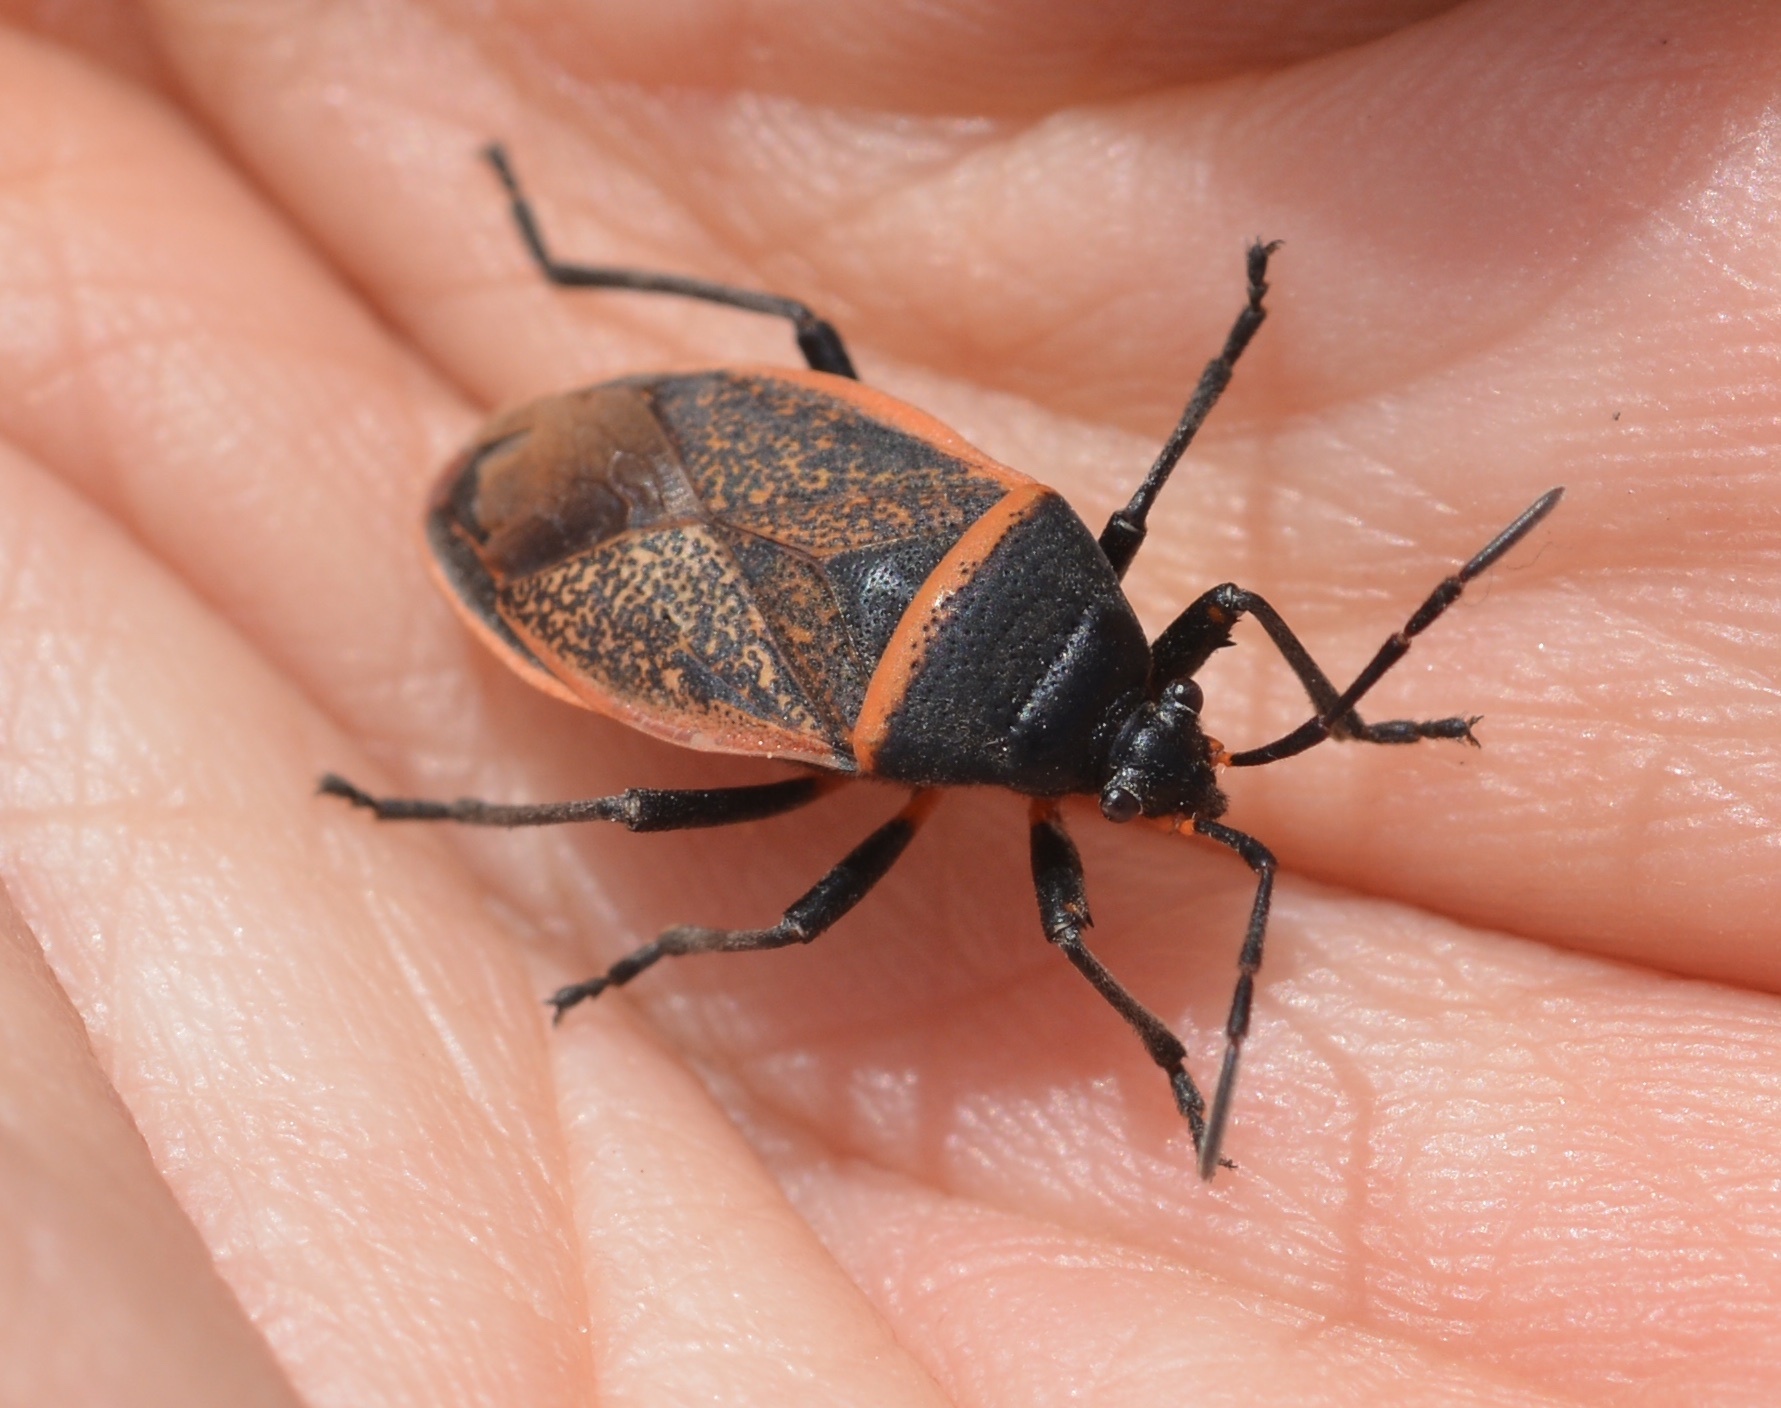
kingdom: Animalia
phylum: Arthropoda
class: Insecta
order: Hemiptera
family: Largidae
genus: Largus
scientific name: Largus californicus
